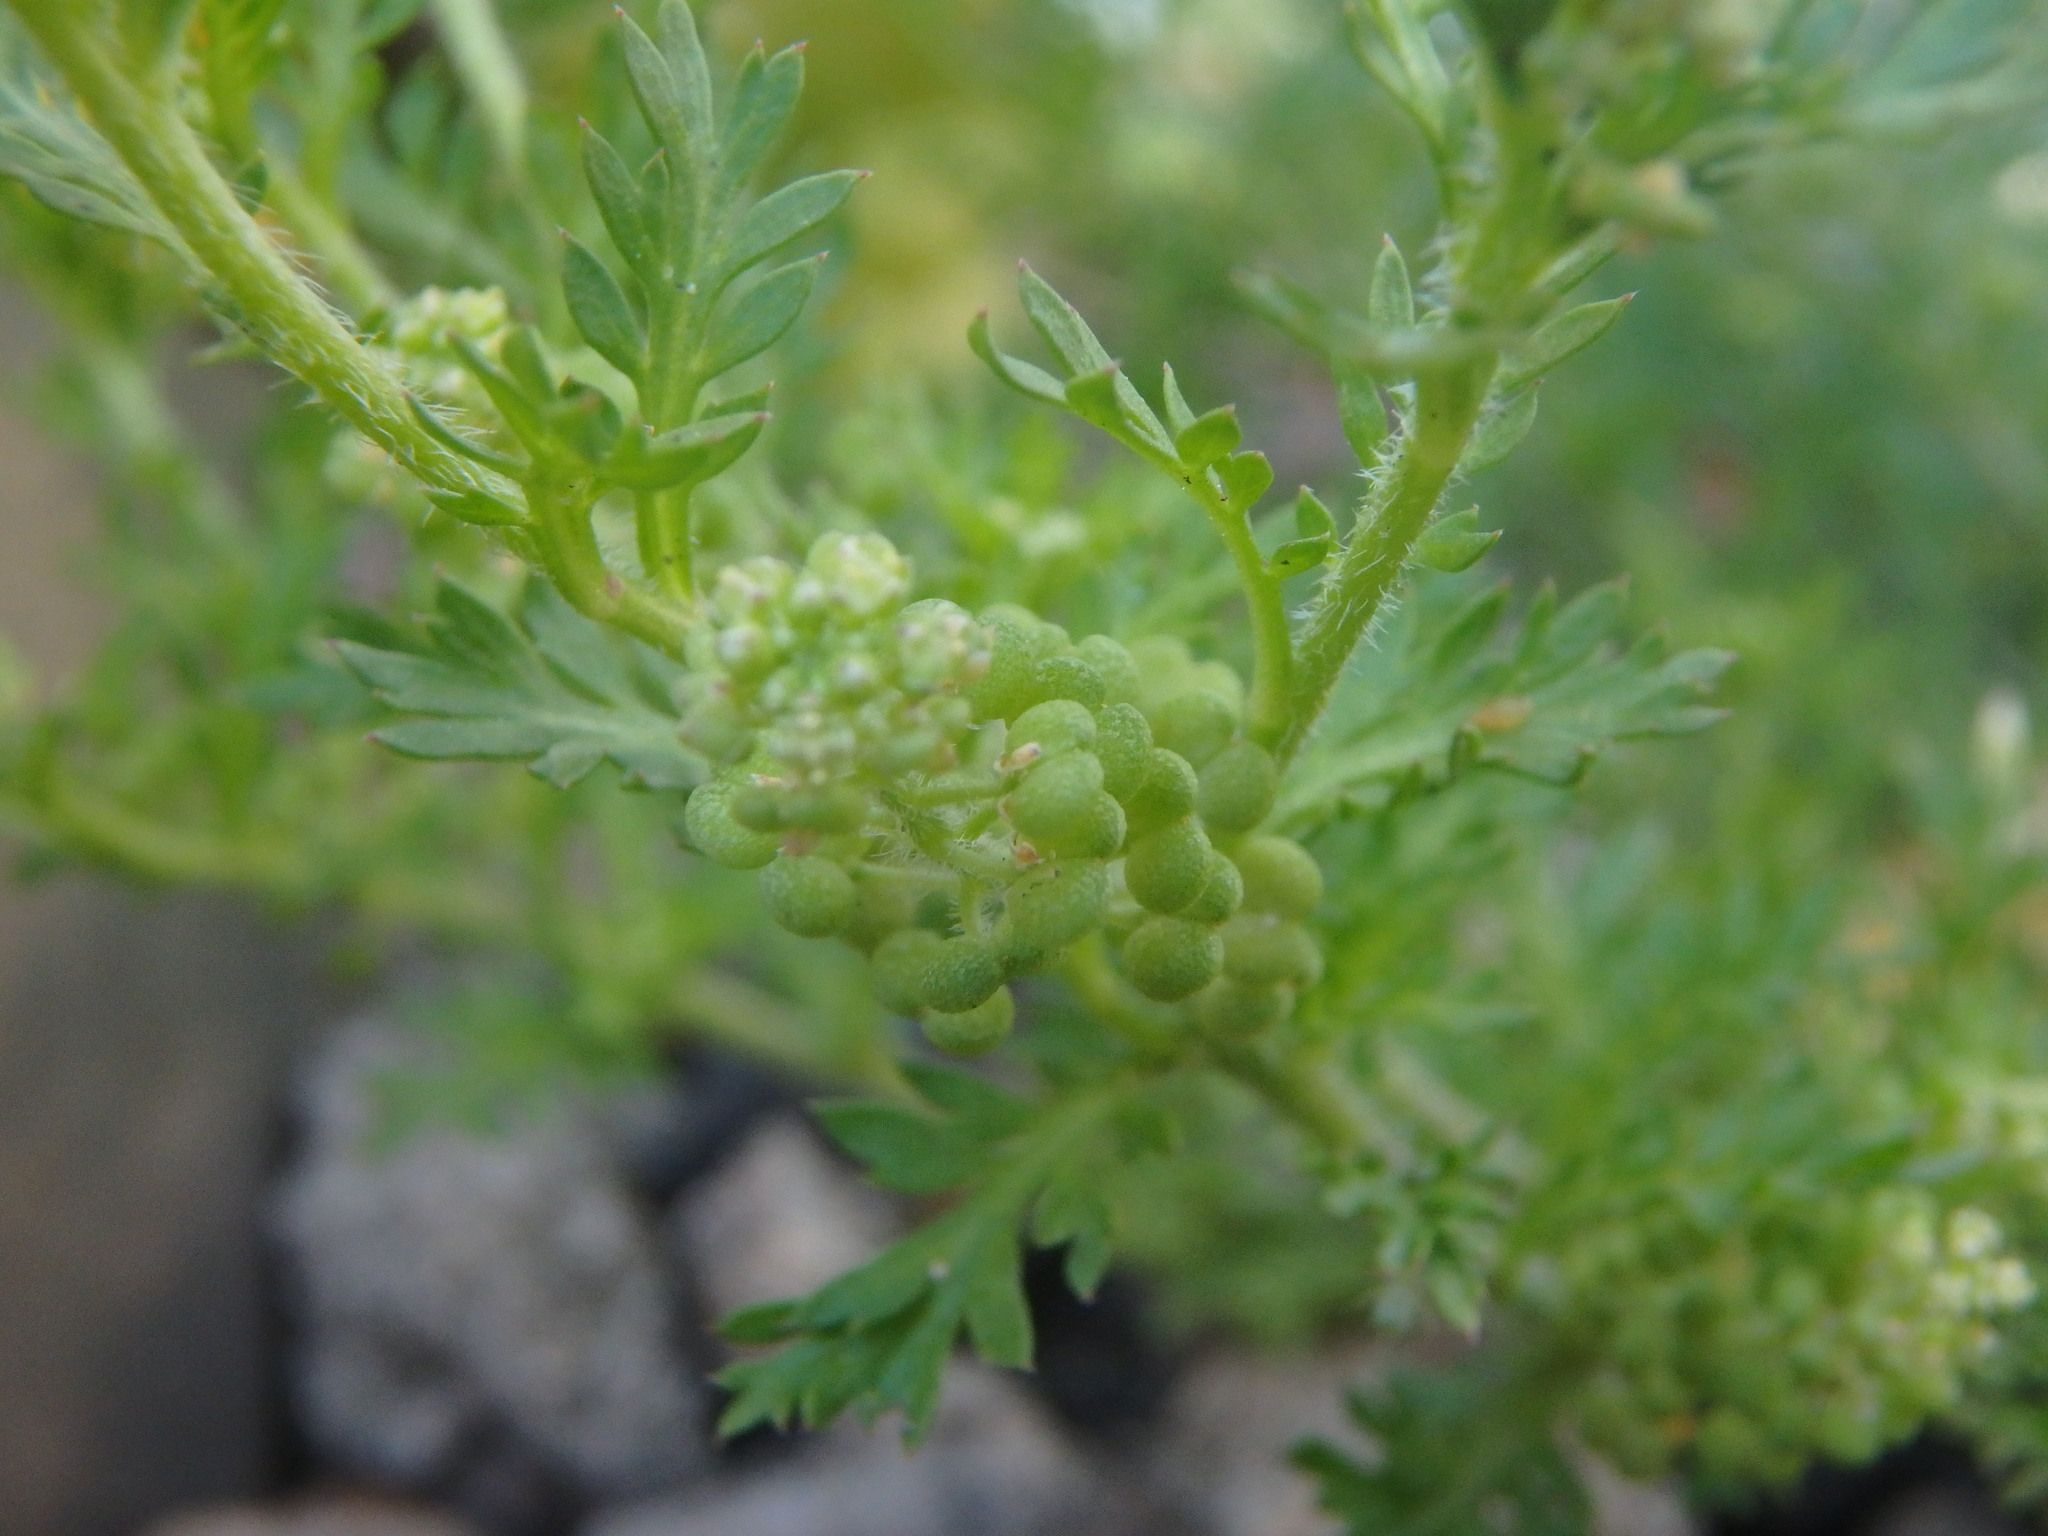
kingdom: Plantae
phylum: Tracheophyta
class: Magnoliopsida
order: Brassicales
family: Brassicaceae
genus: Lepidium
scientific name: Lepidium didymum
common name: Lesser swinecress
